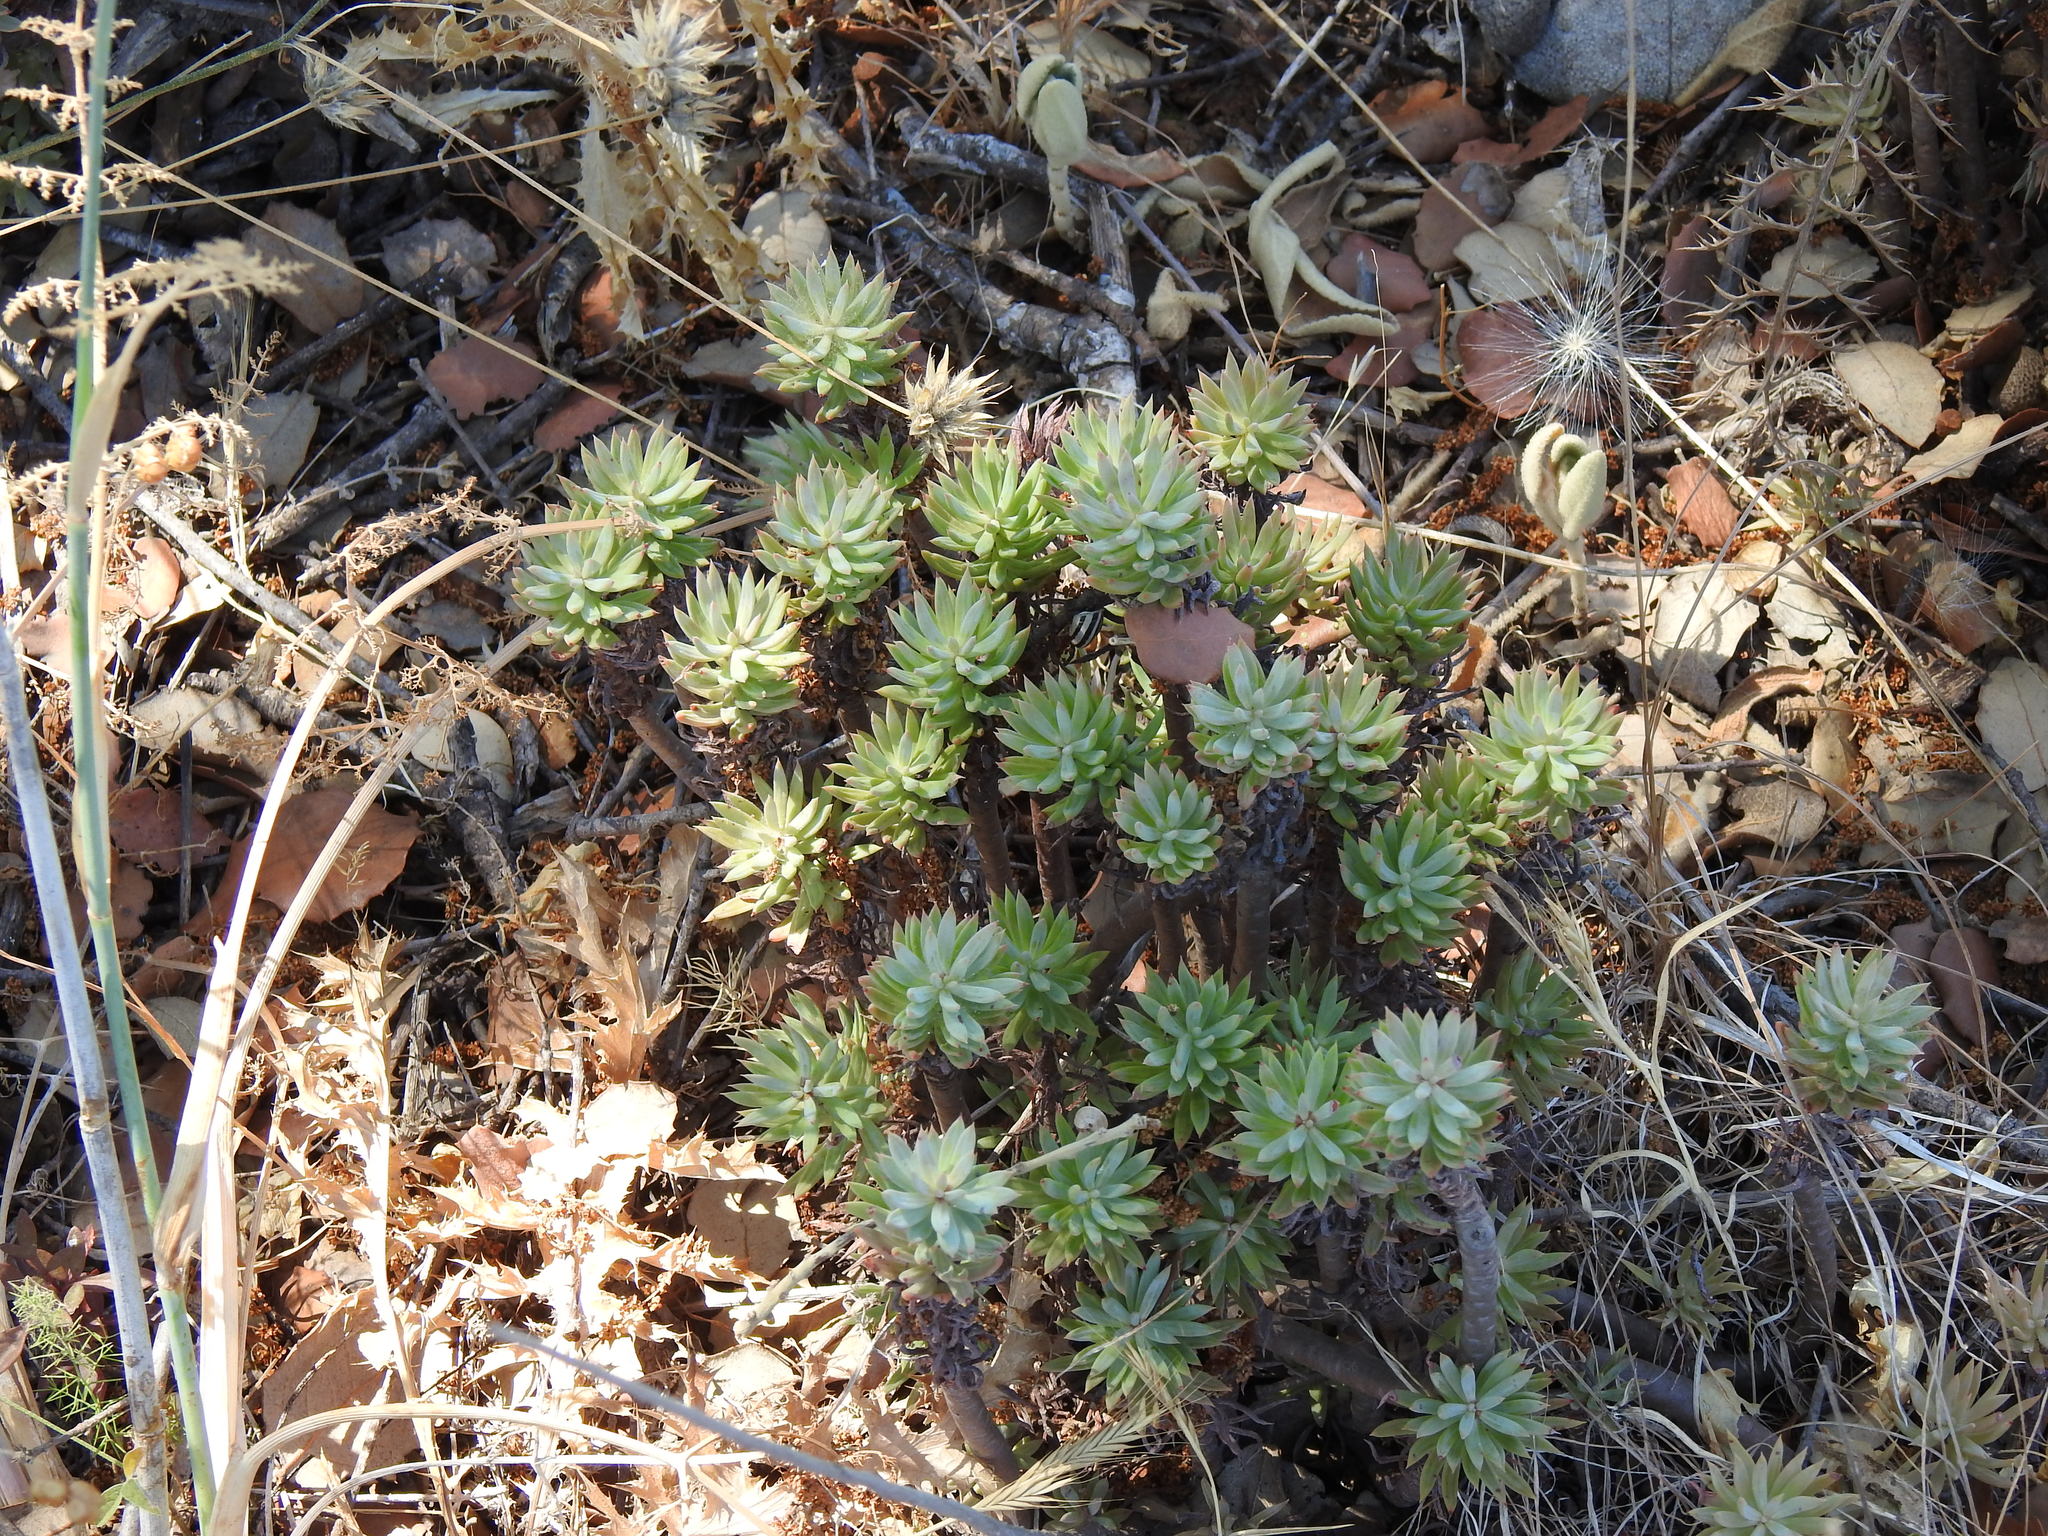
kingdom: Plantae
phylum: Tracheophyta
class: Magnoliopsida
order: Saxifragales
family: Crassulaceae
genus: Petrosedum
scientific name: Petrosedum sediforme
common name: Pale stonecrop
